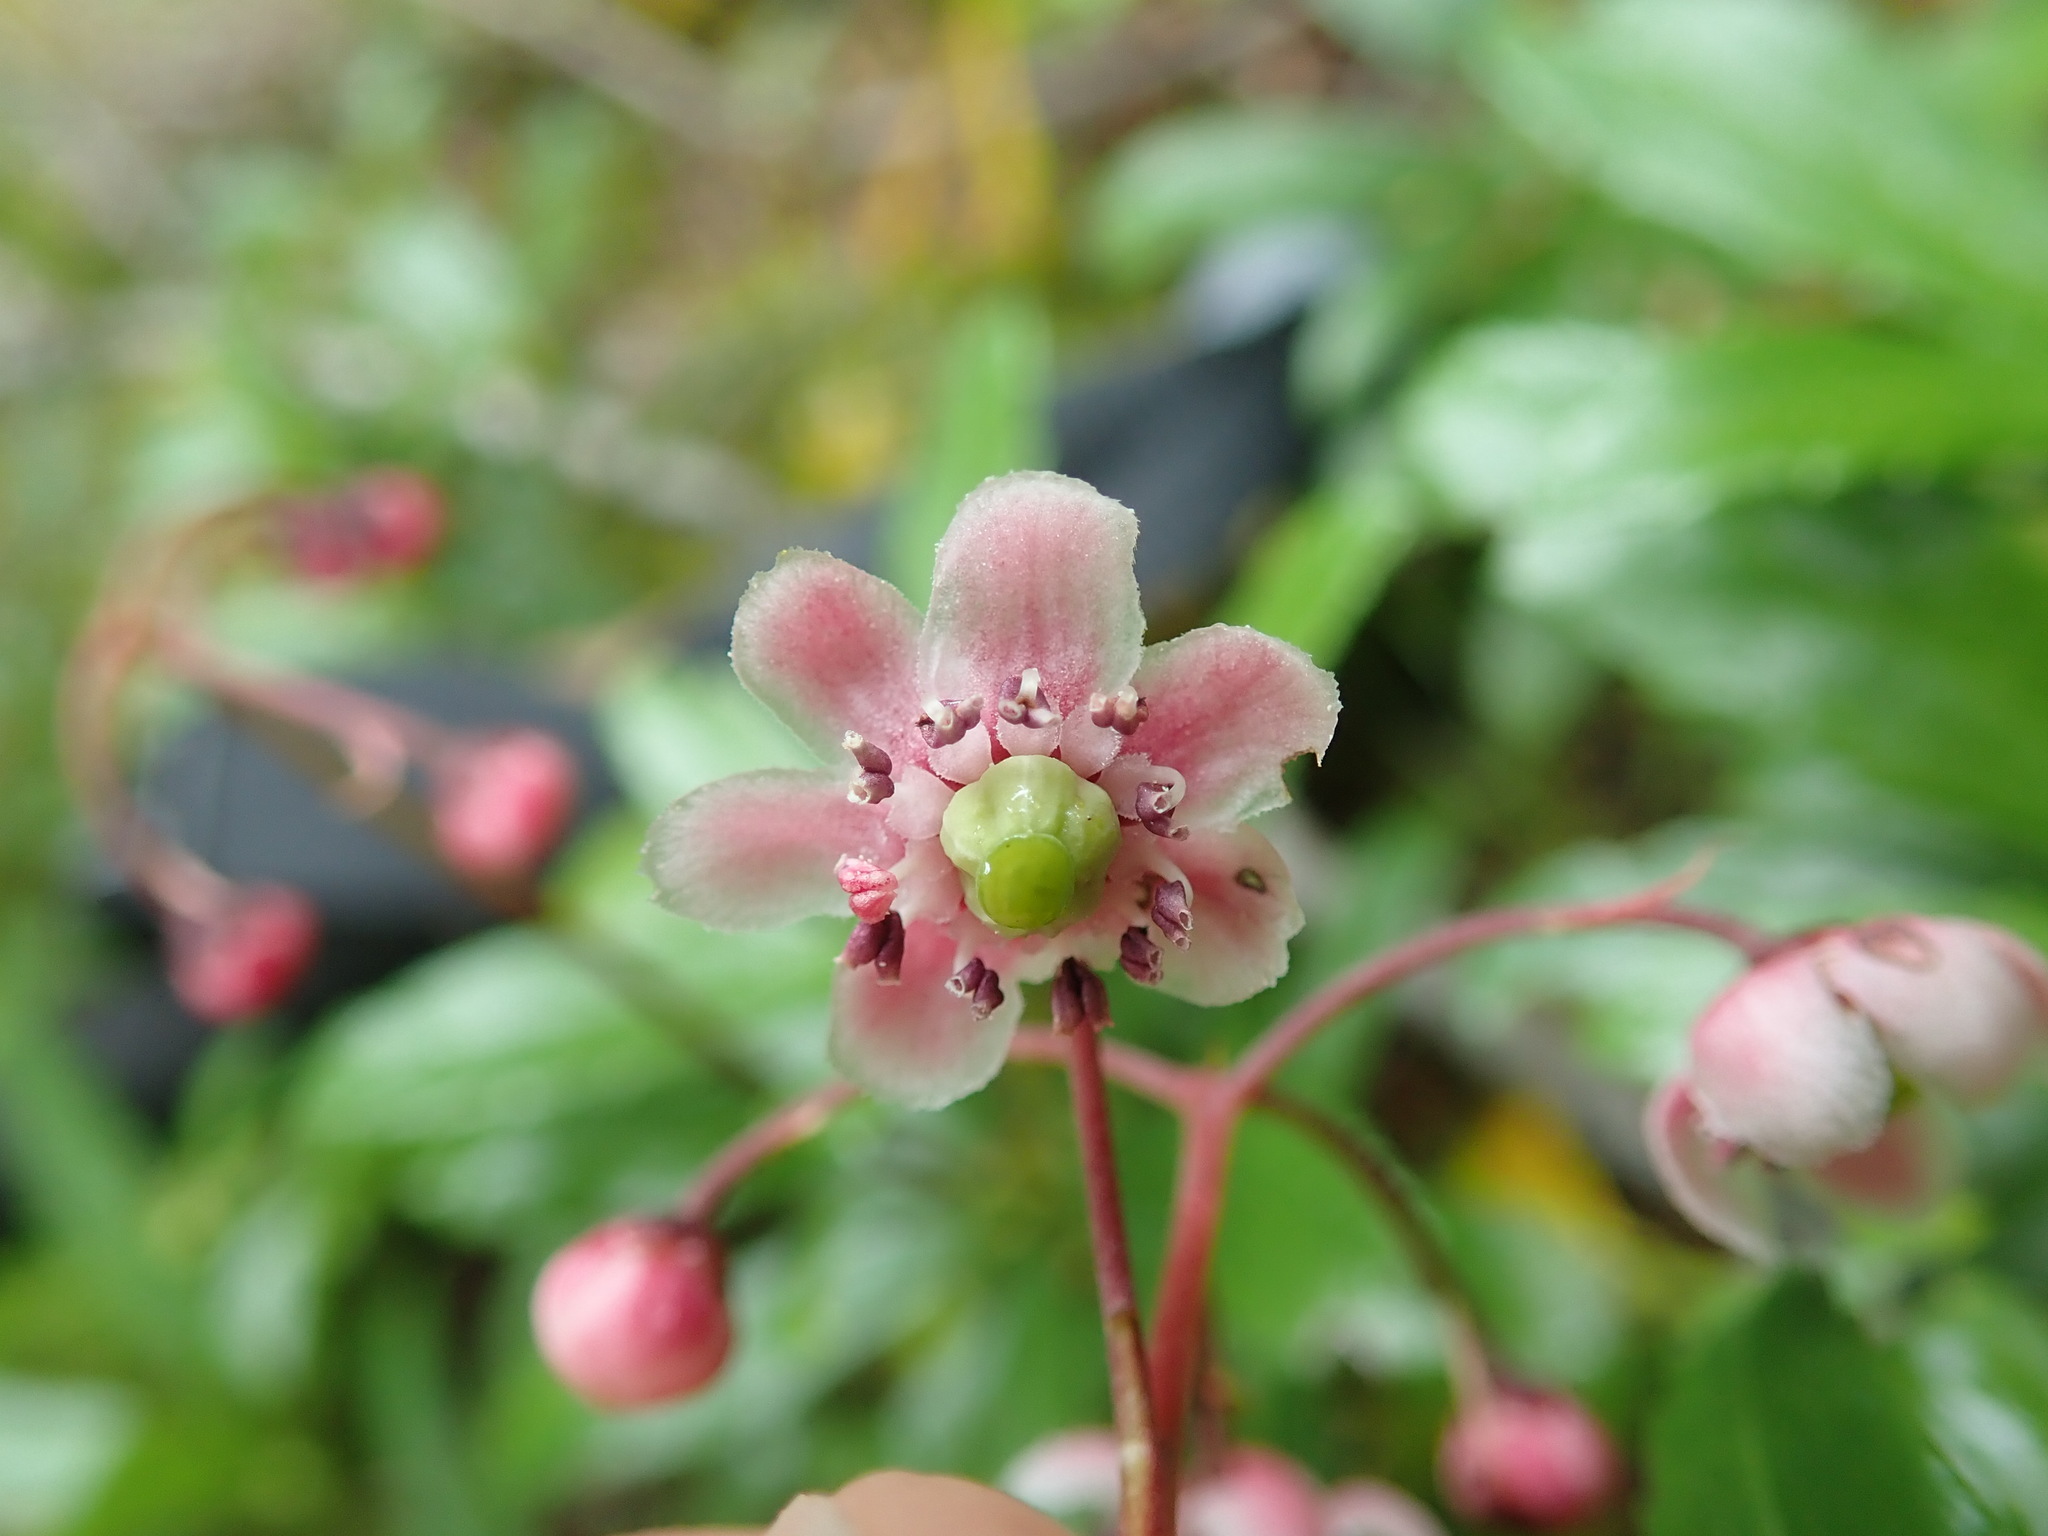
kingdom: Plantae
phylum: Tracheophyta
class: Magnoliopsida
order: Ericales
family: Ericaceae
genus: Chimaphila
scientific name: Chimaphila umbellata
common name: Pipsissewa
